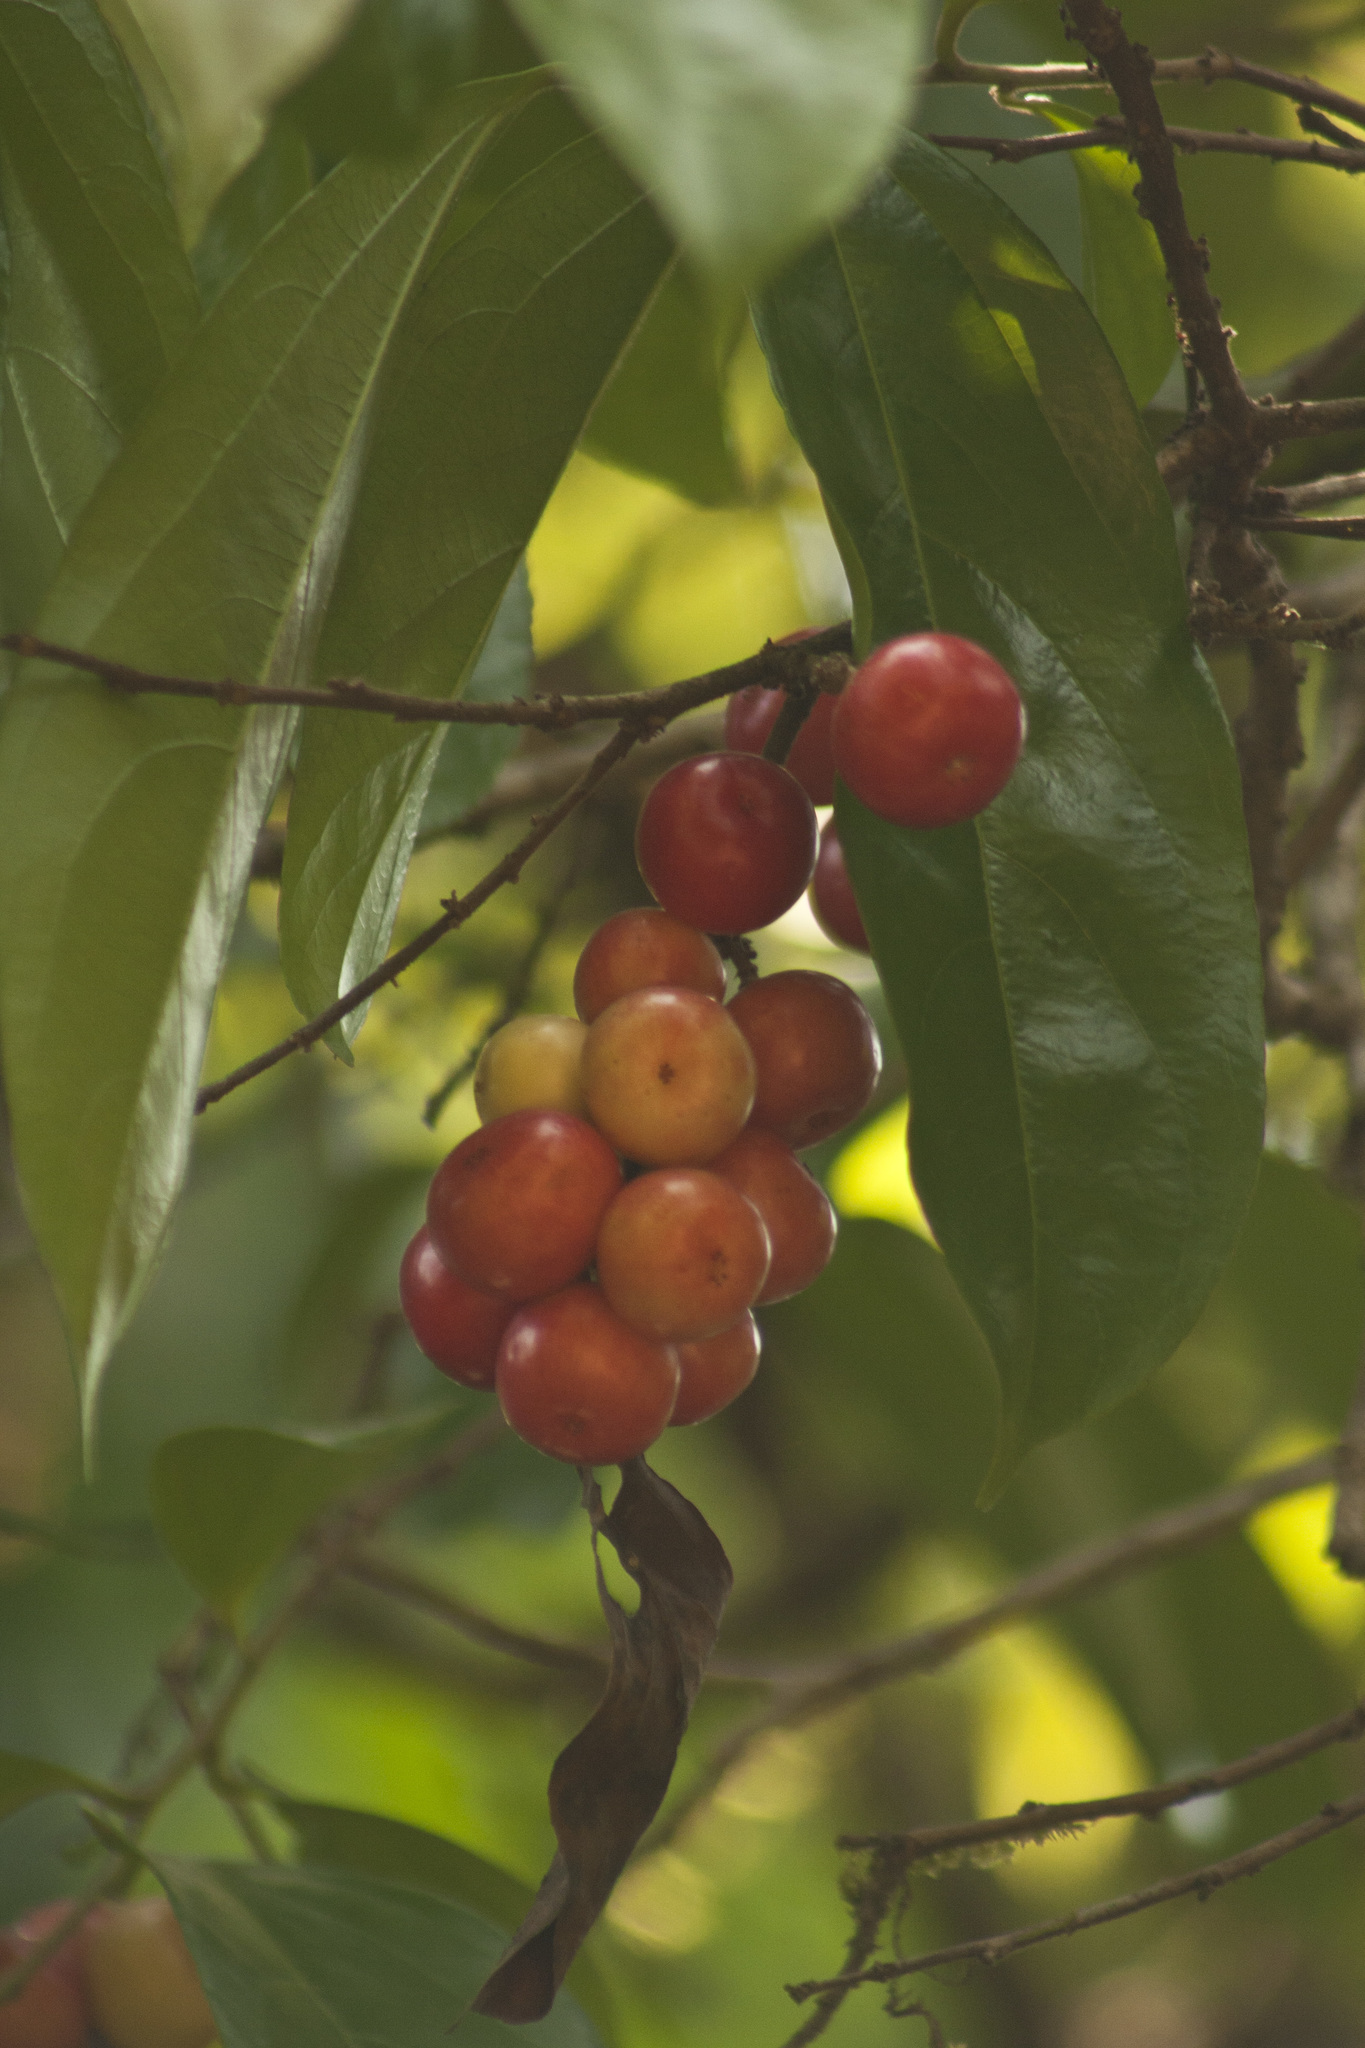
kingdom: Plantae
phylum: Tracheophyta
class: Magnoliopsida
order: Malpighiales
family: Salicaceae
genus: Flacourtia
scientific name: Flacourtia montana
